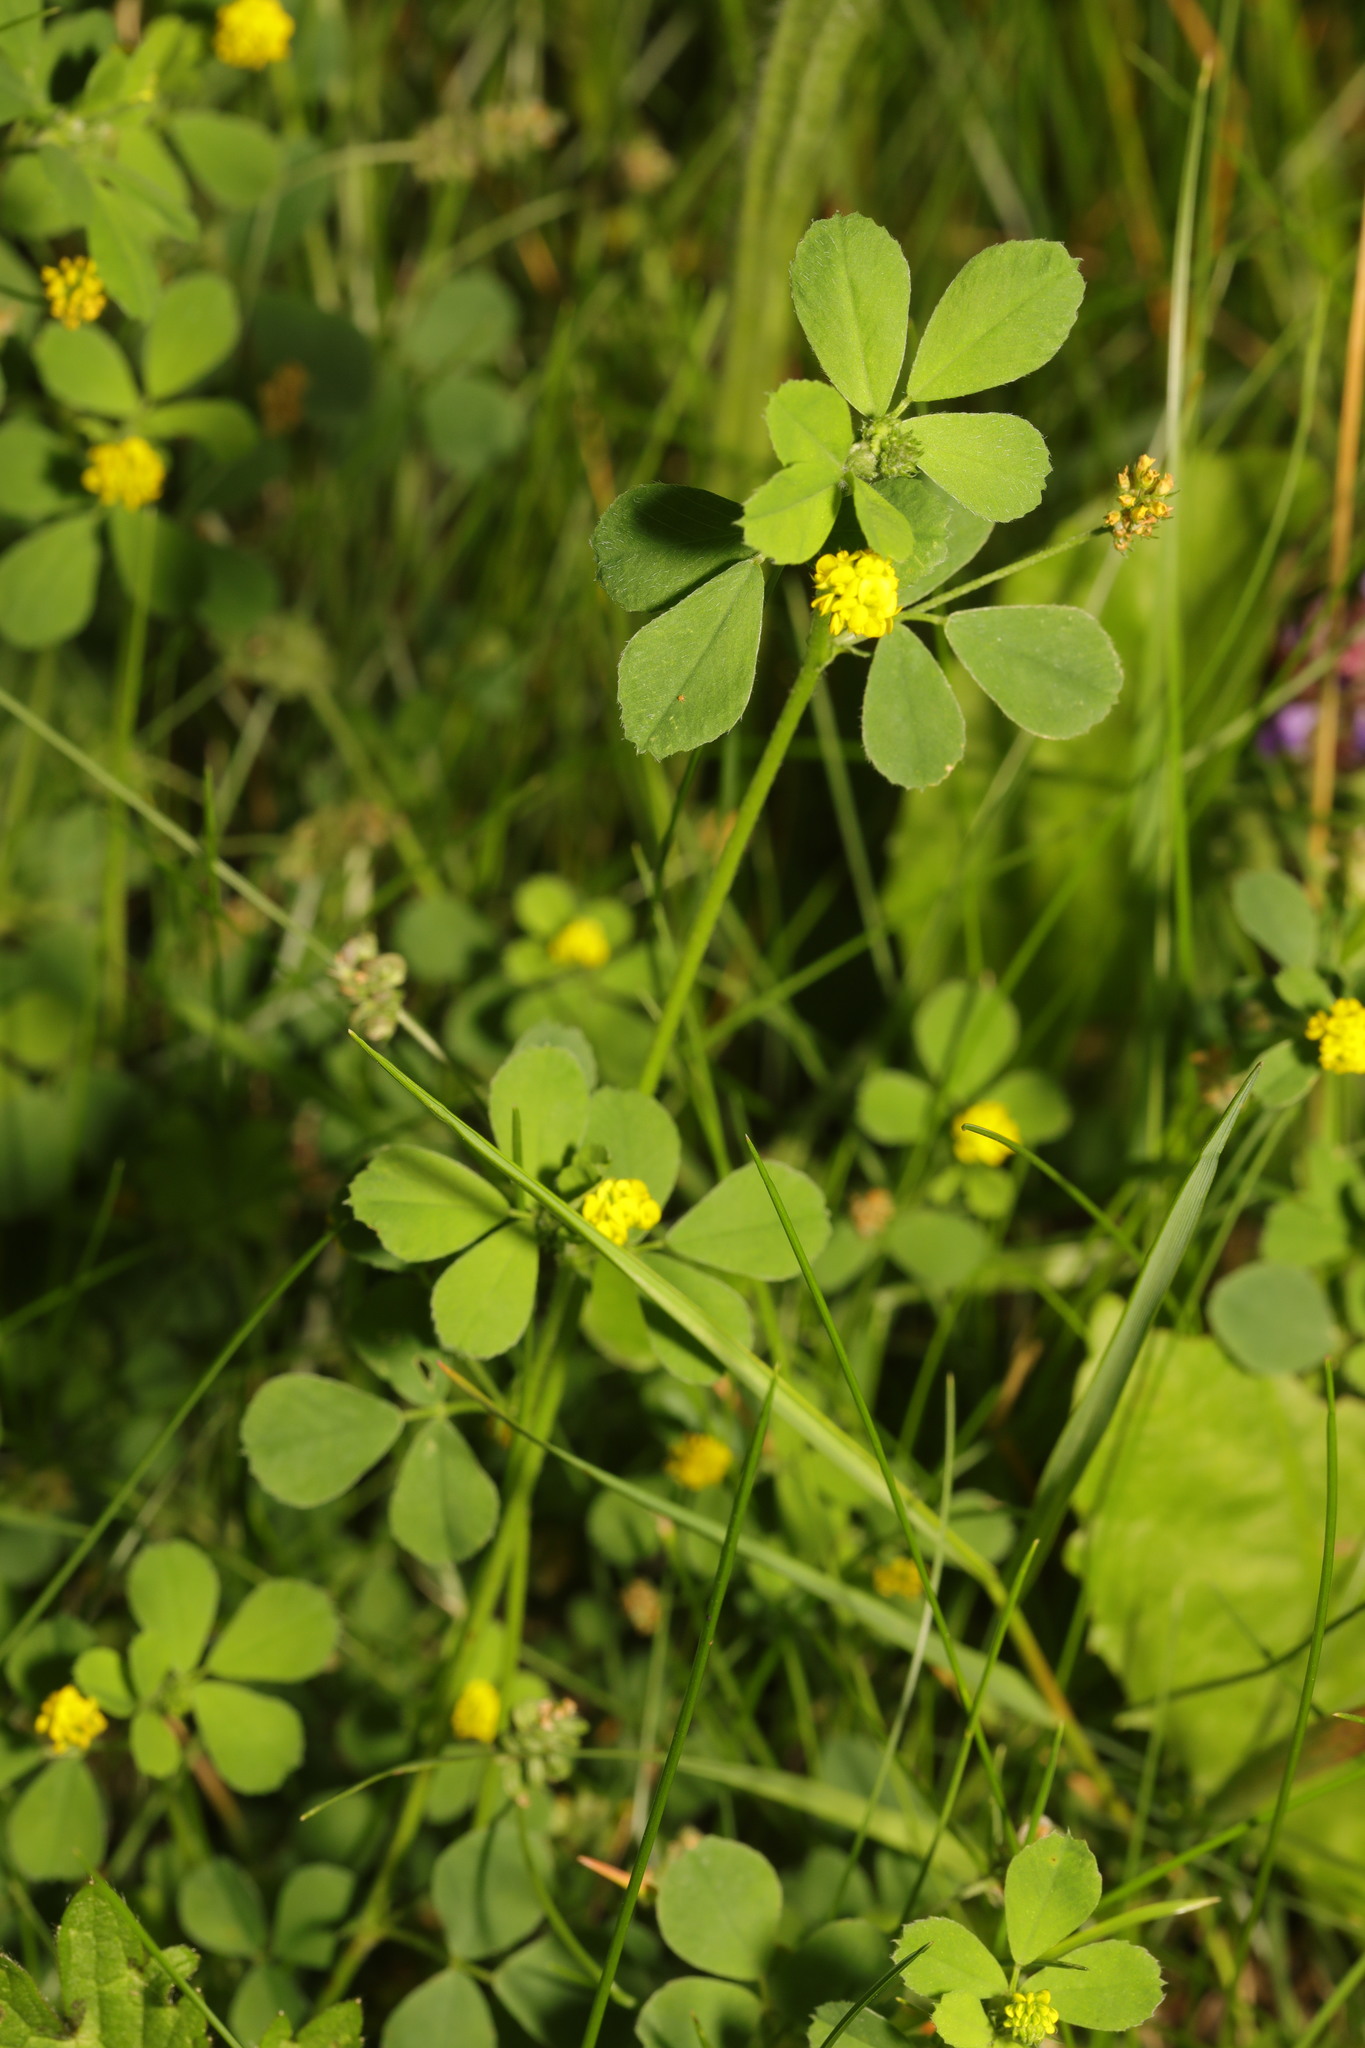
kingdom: Plantae
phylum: Tracheophyta
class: Magnoliopsida
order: Fabales
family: Fabaceae
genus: Medicago
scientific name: Medicago lupulina
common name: Black medick
